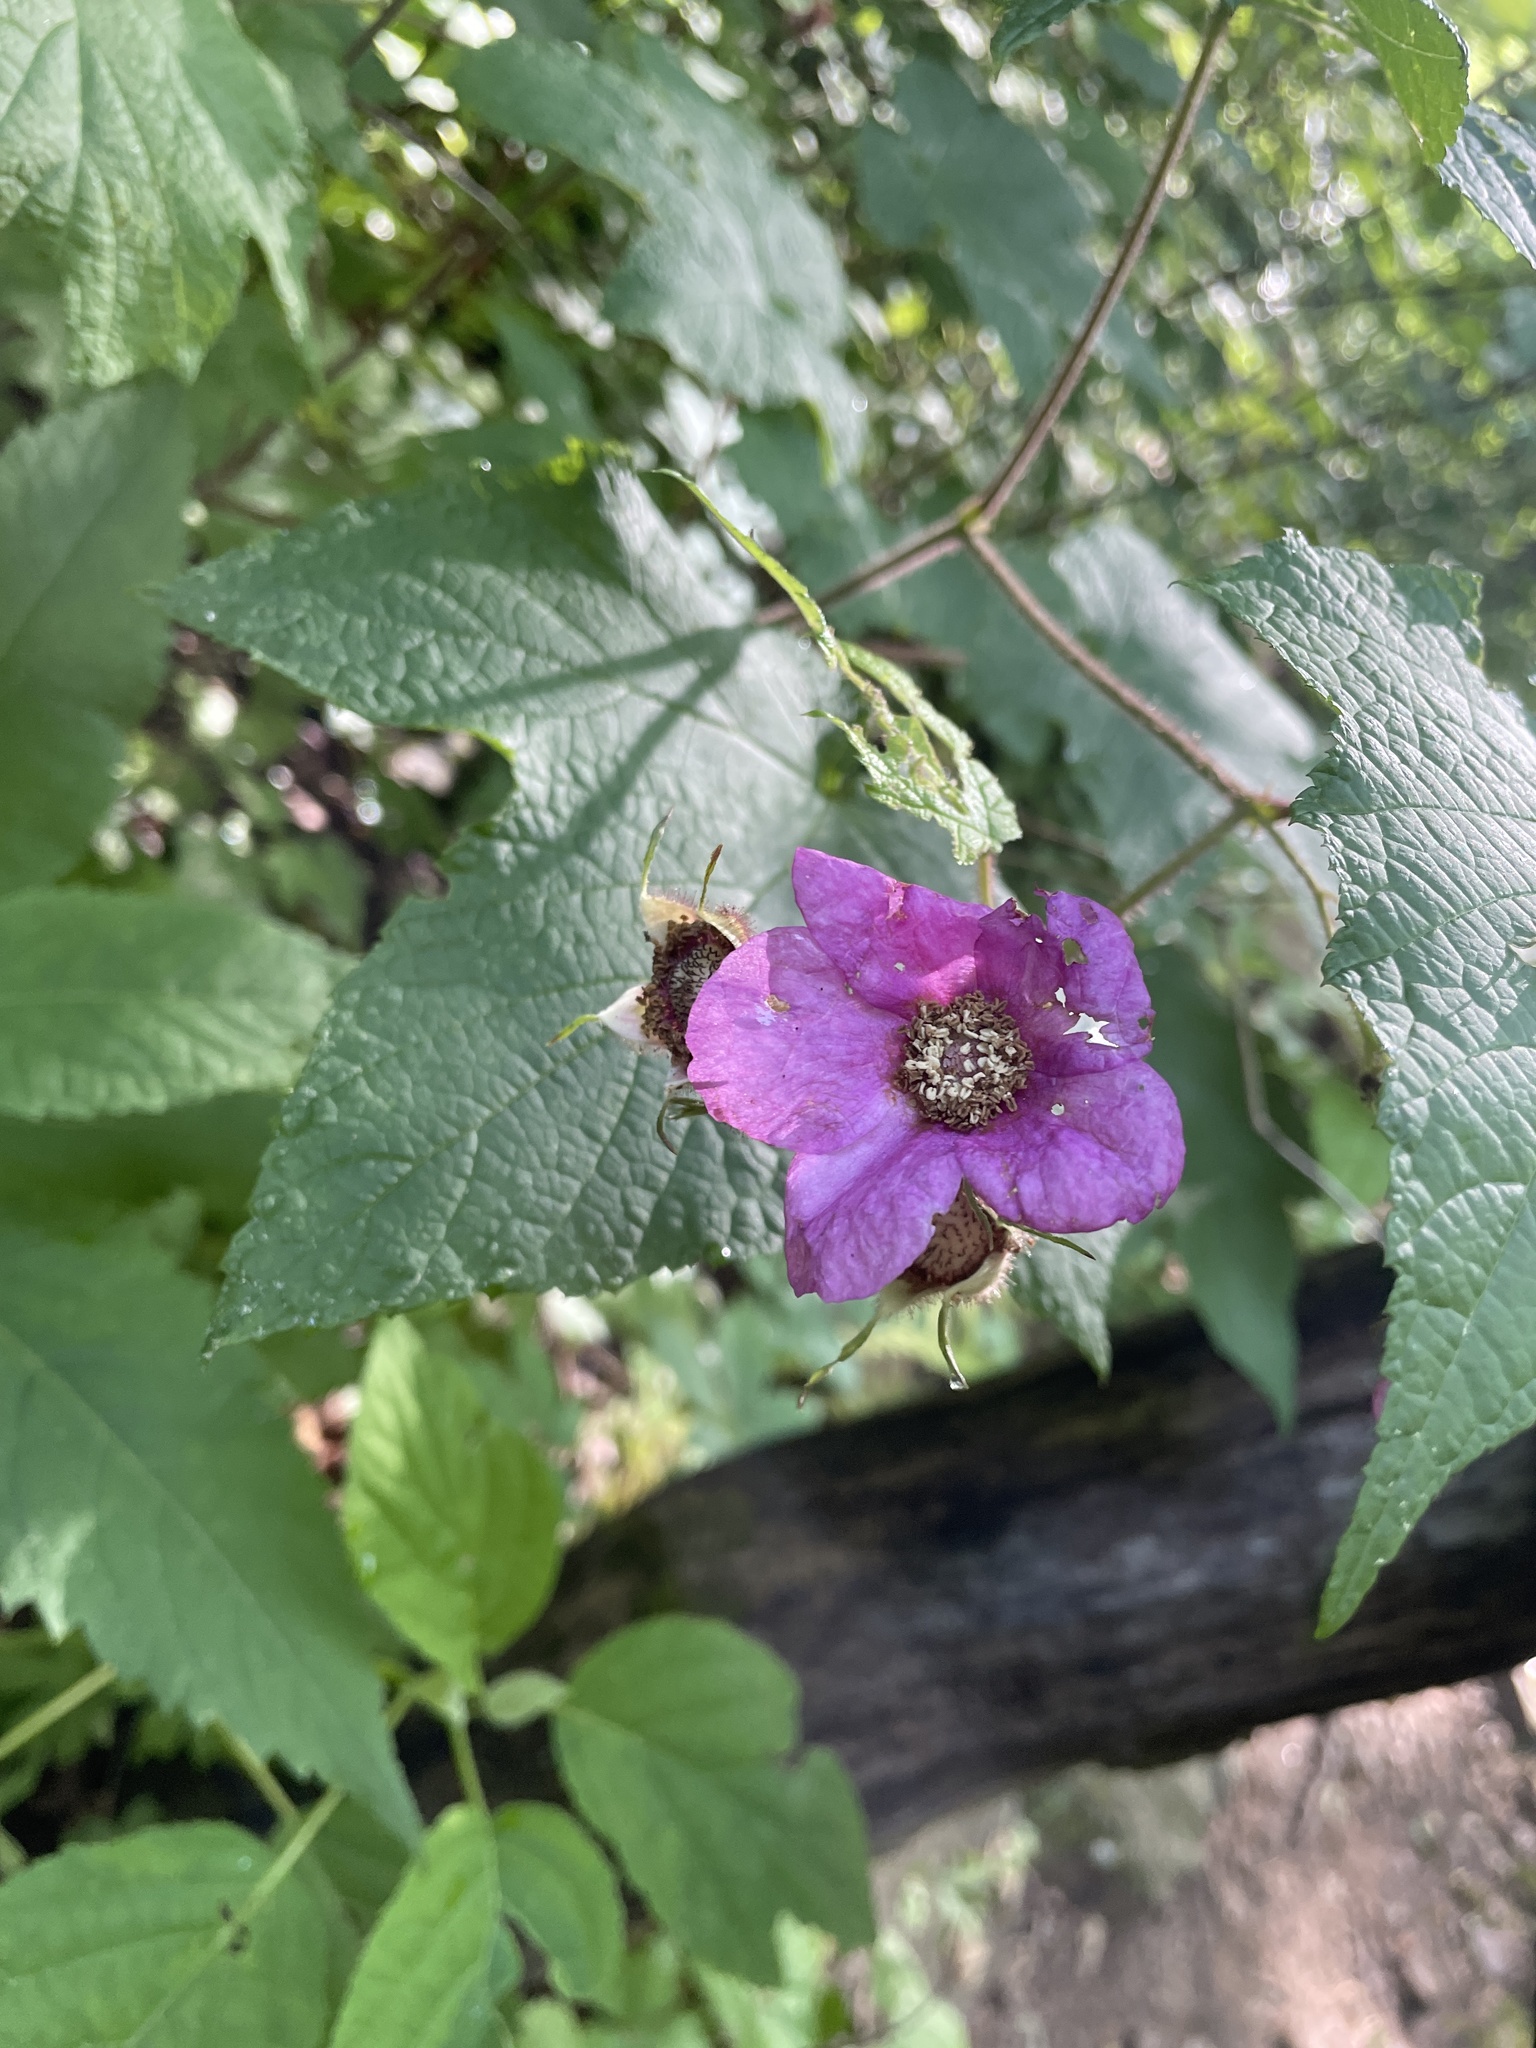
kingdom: Plantae
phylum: Tracheophyta
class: Magnoliopsida
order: Rosales
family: Rosaceae
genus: Rubus
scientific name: Rubus odoratus
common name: Purple-flowered raspberry
